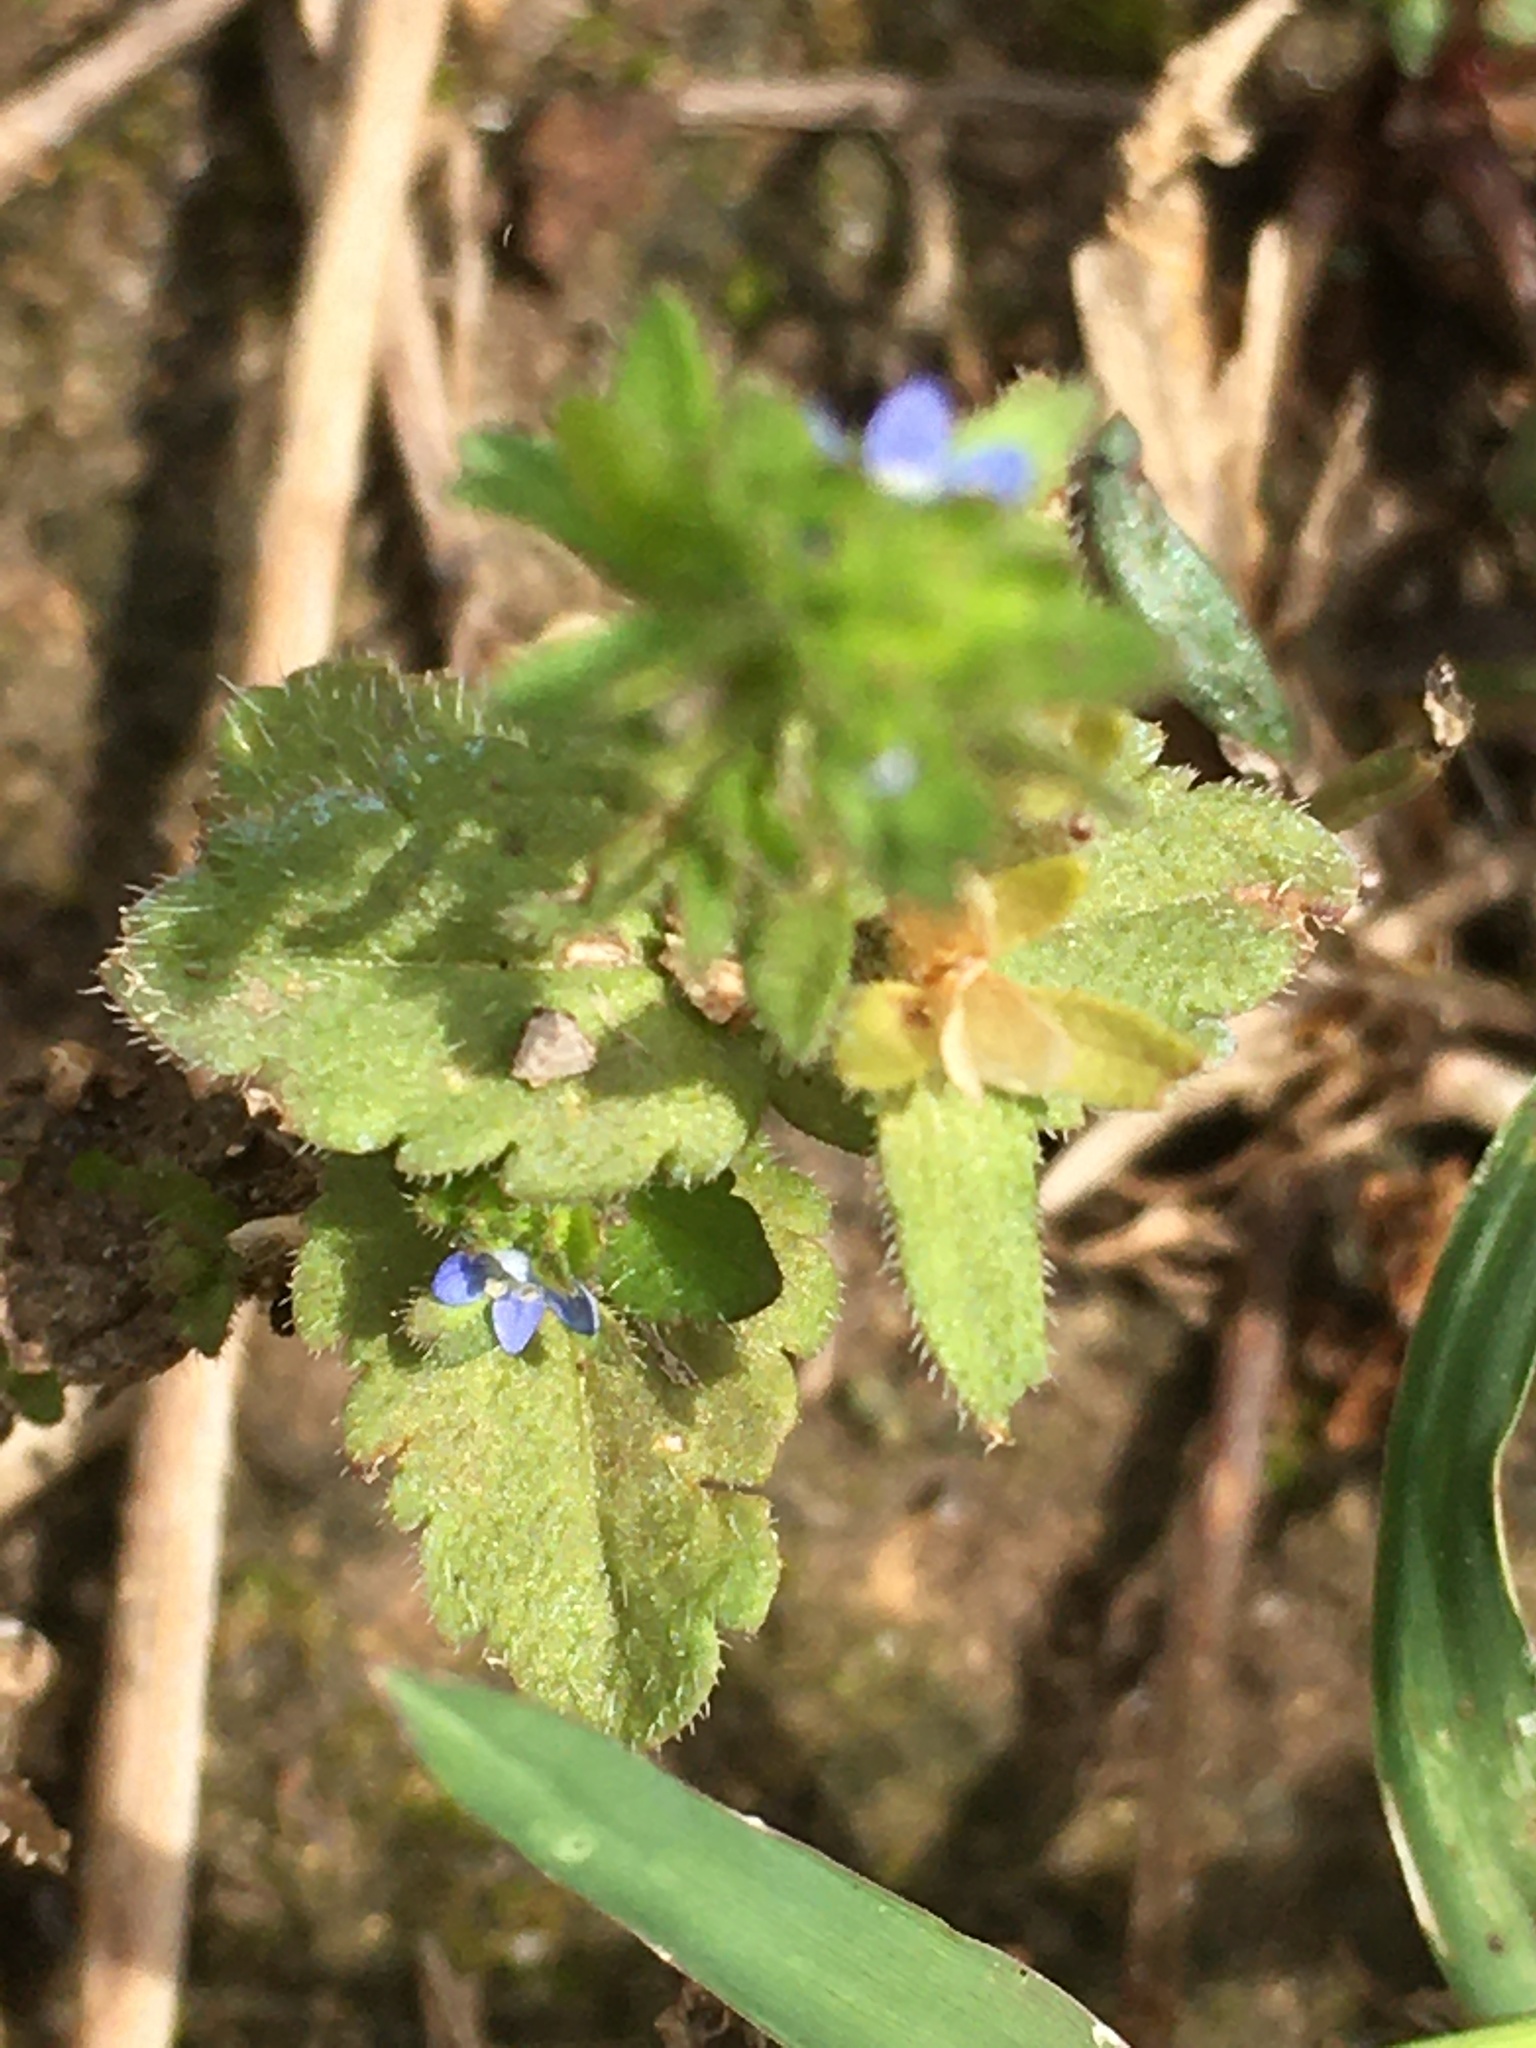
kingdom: Plantae
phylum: Tracheophyta
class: Magnoliopsida
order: Lamiales
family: Plantaginaceae
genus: Veronica
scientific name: Veronica arvensis
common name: Corn speedwell
